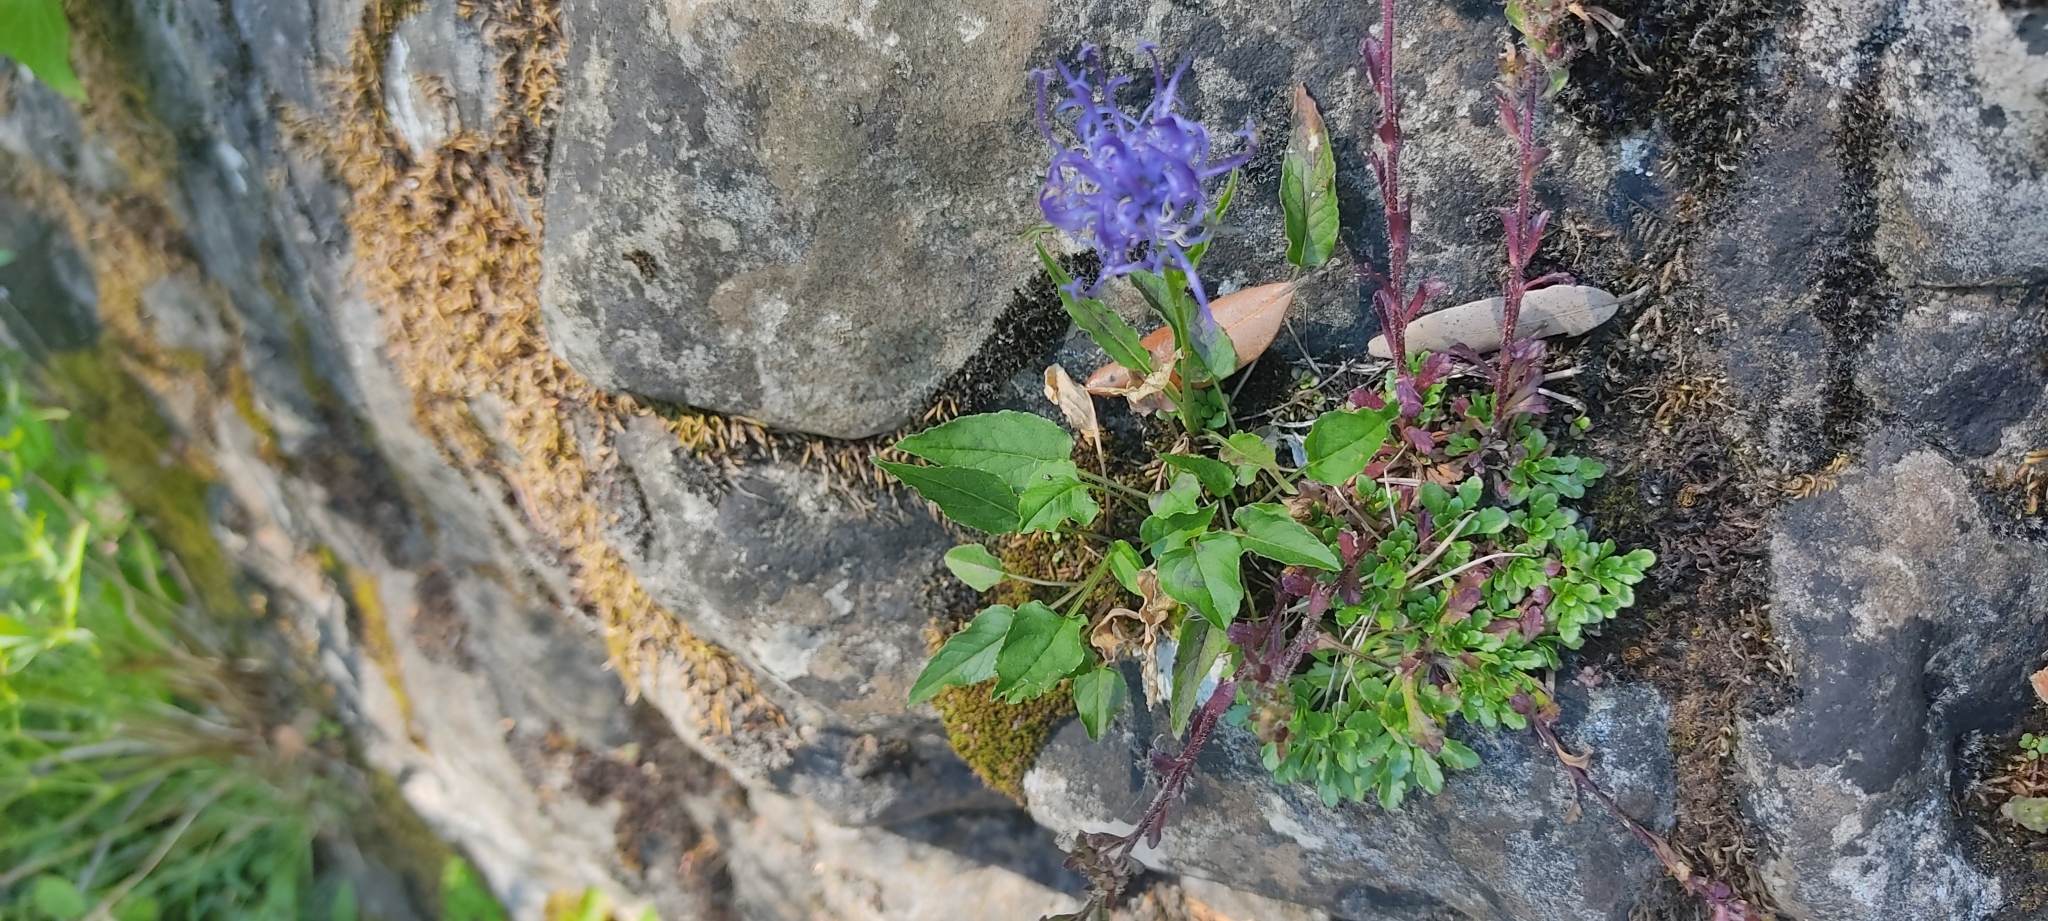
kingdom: Plantae
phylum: Tracheophyta
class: Magnoliopsida
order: Asterales
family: Campanulaceae
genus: Phyteuma
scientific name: Phyteuma orbiculare
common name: Round-headed rampion
